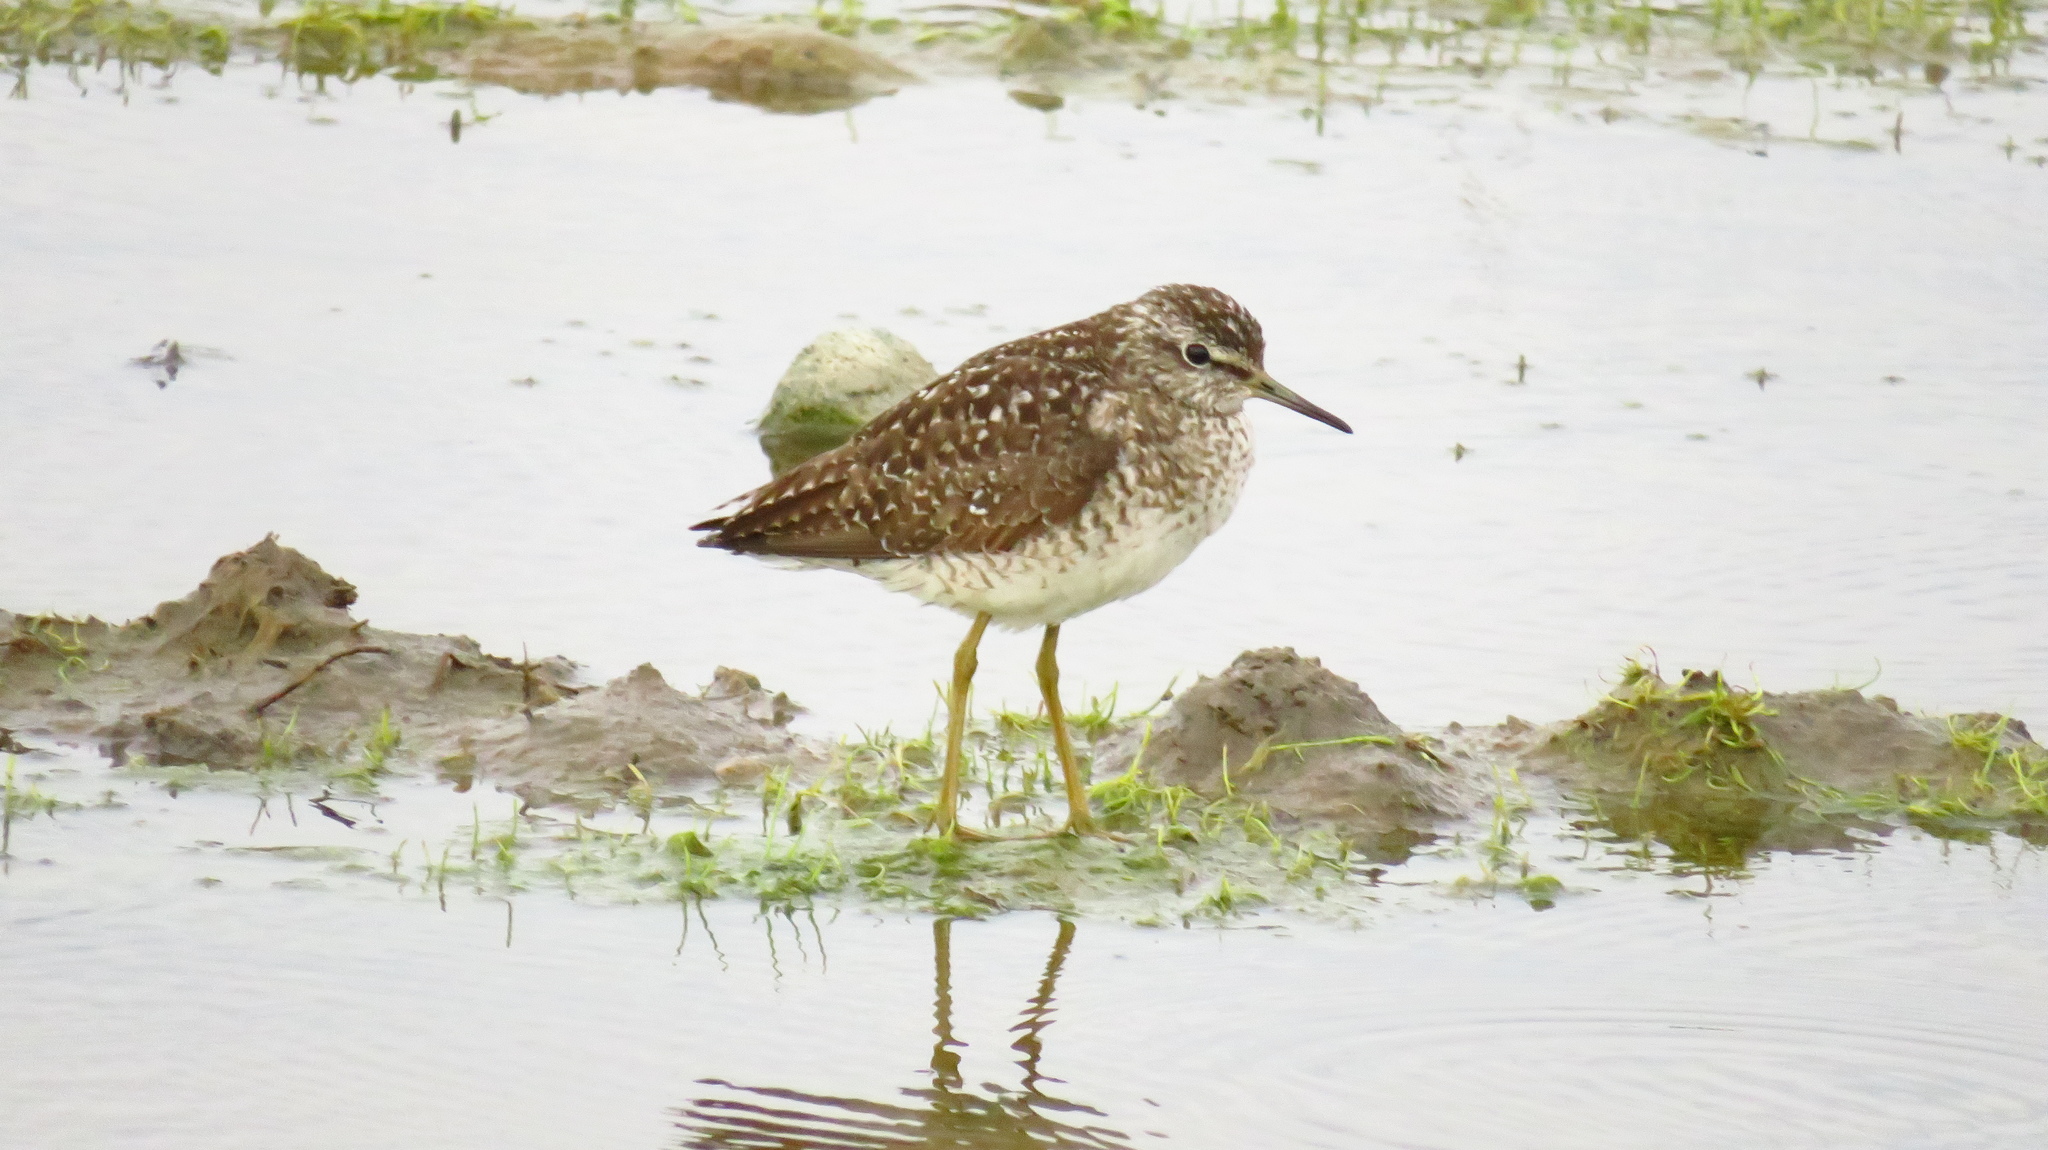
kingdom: Animalia
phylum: Chordata
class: Aves
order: Charadriiformes
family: Scolopacidae
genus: Tringa
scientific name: Tringa glareola
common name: Wood sandpiper
